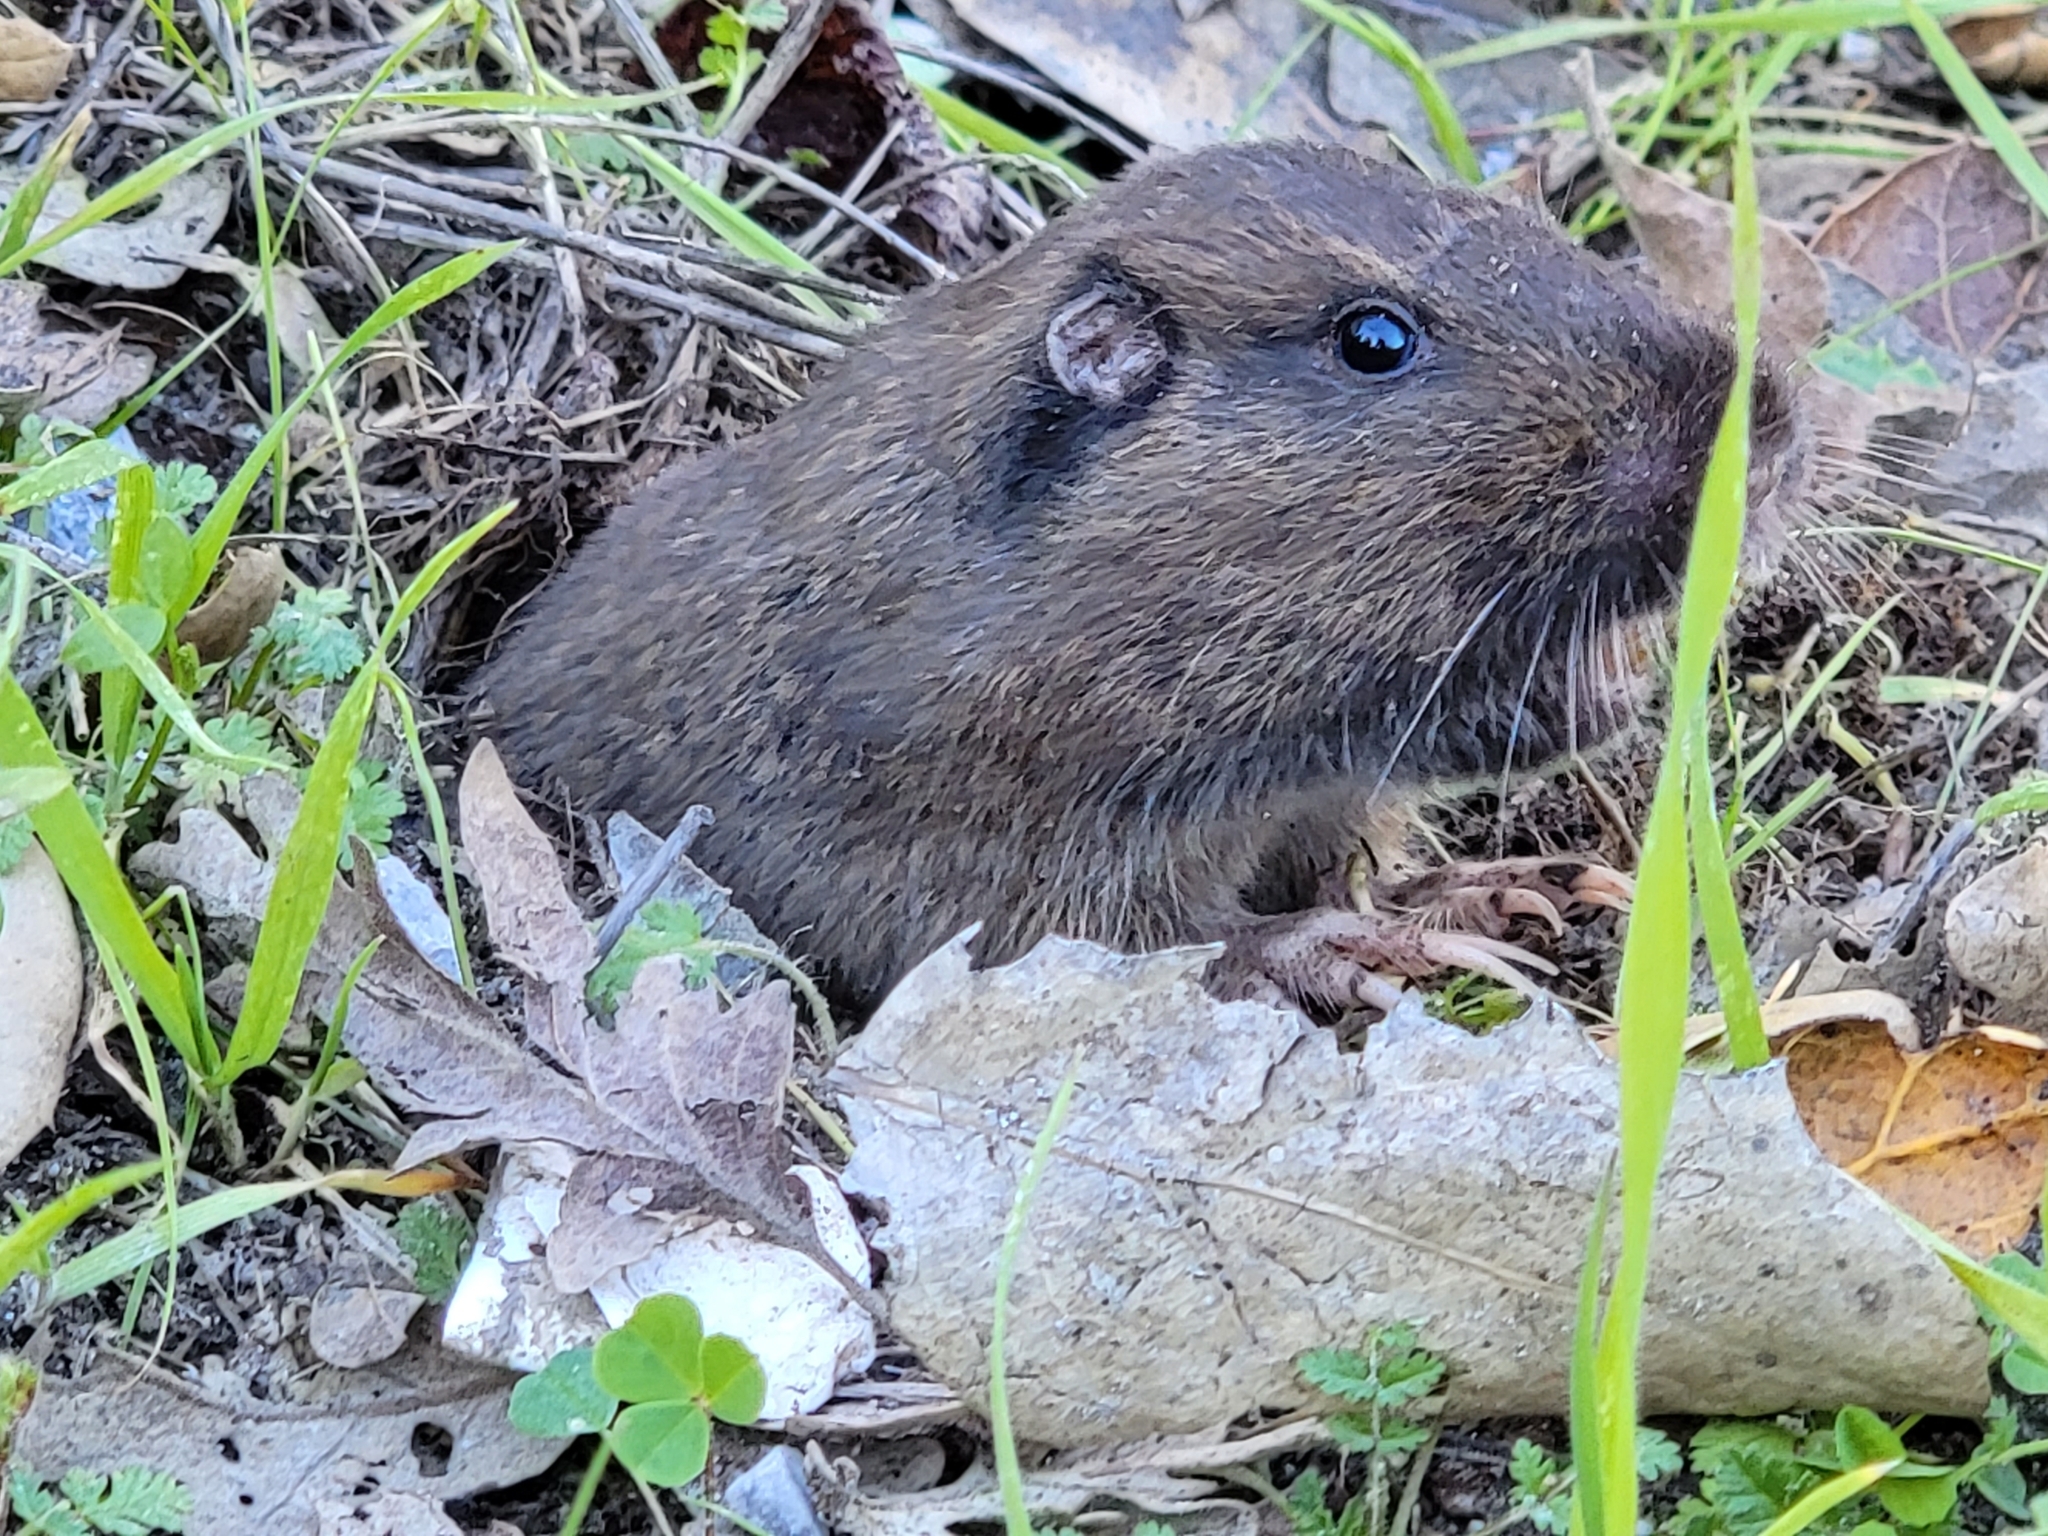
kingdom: Animalia
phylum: Chordata
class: Mammalia
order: Rodentia
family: Geomyidae
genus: Thomomys
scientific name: Thomomys bottae
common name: Botta's pocket gopher
